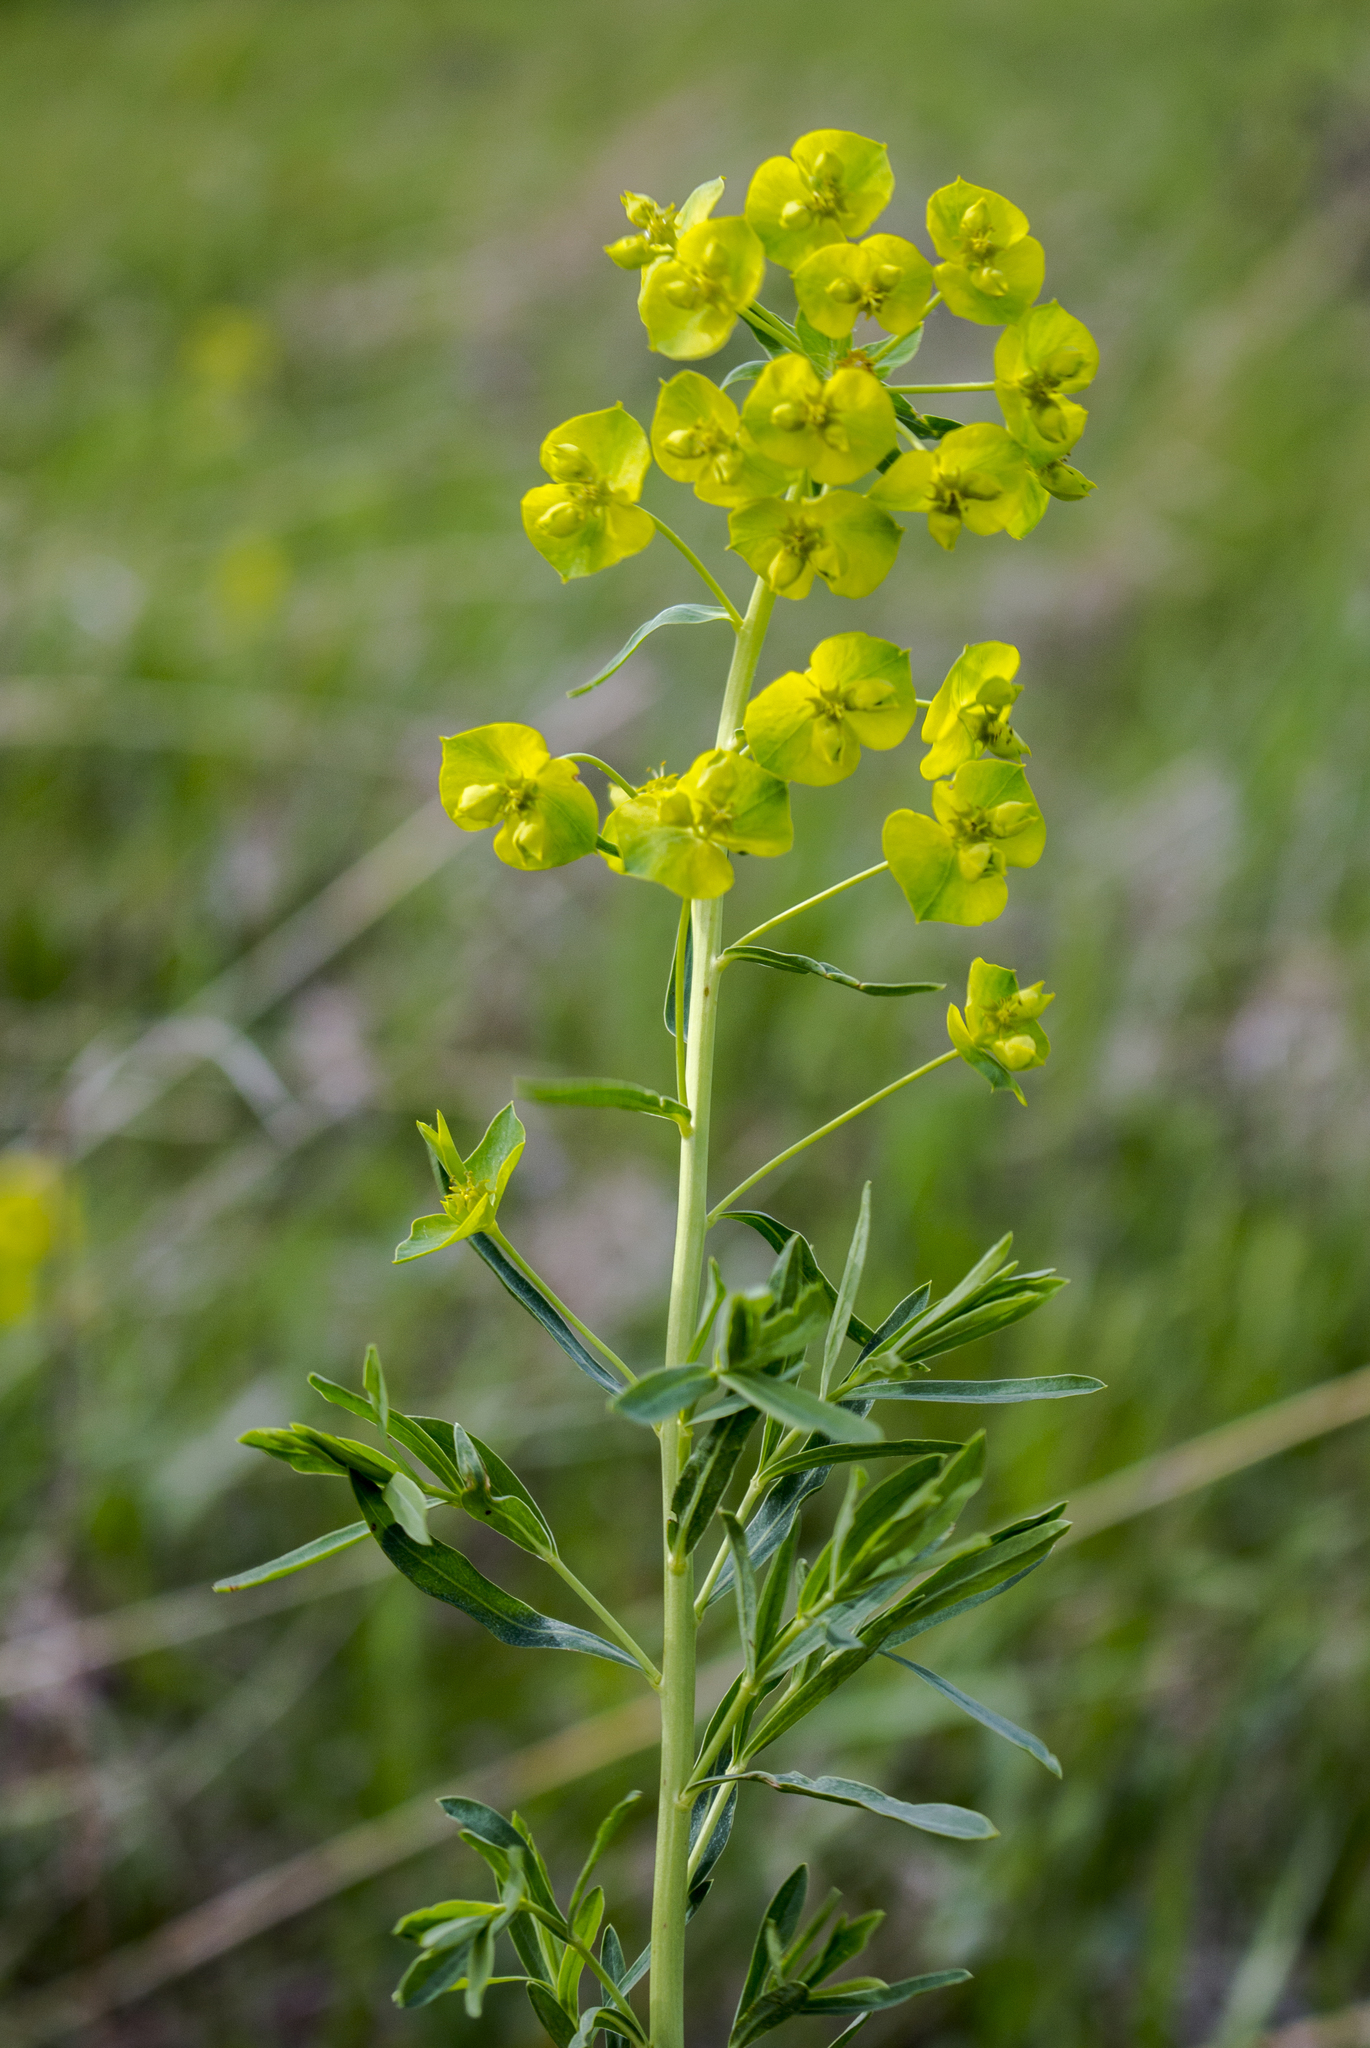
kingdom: Plantae
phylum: Tracheophyta
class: Magnoliopsida
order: Malpighiales
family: Euphorbiaceae
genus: Euphorbia
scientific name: Euphorbia virgata
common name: Leafy spurge
